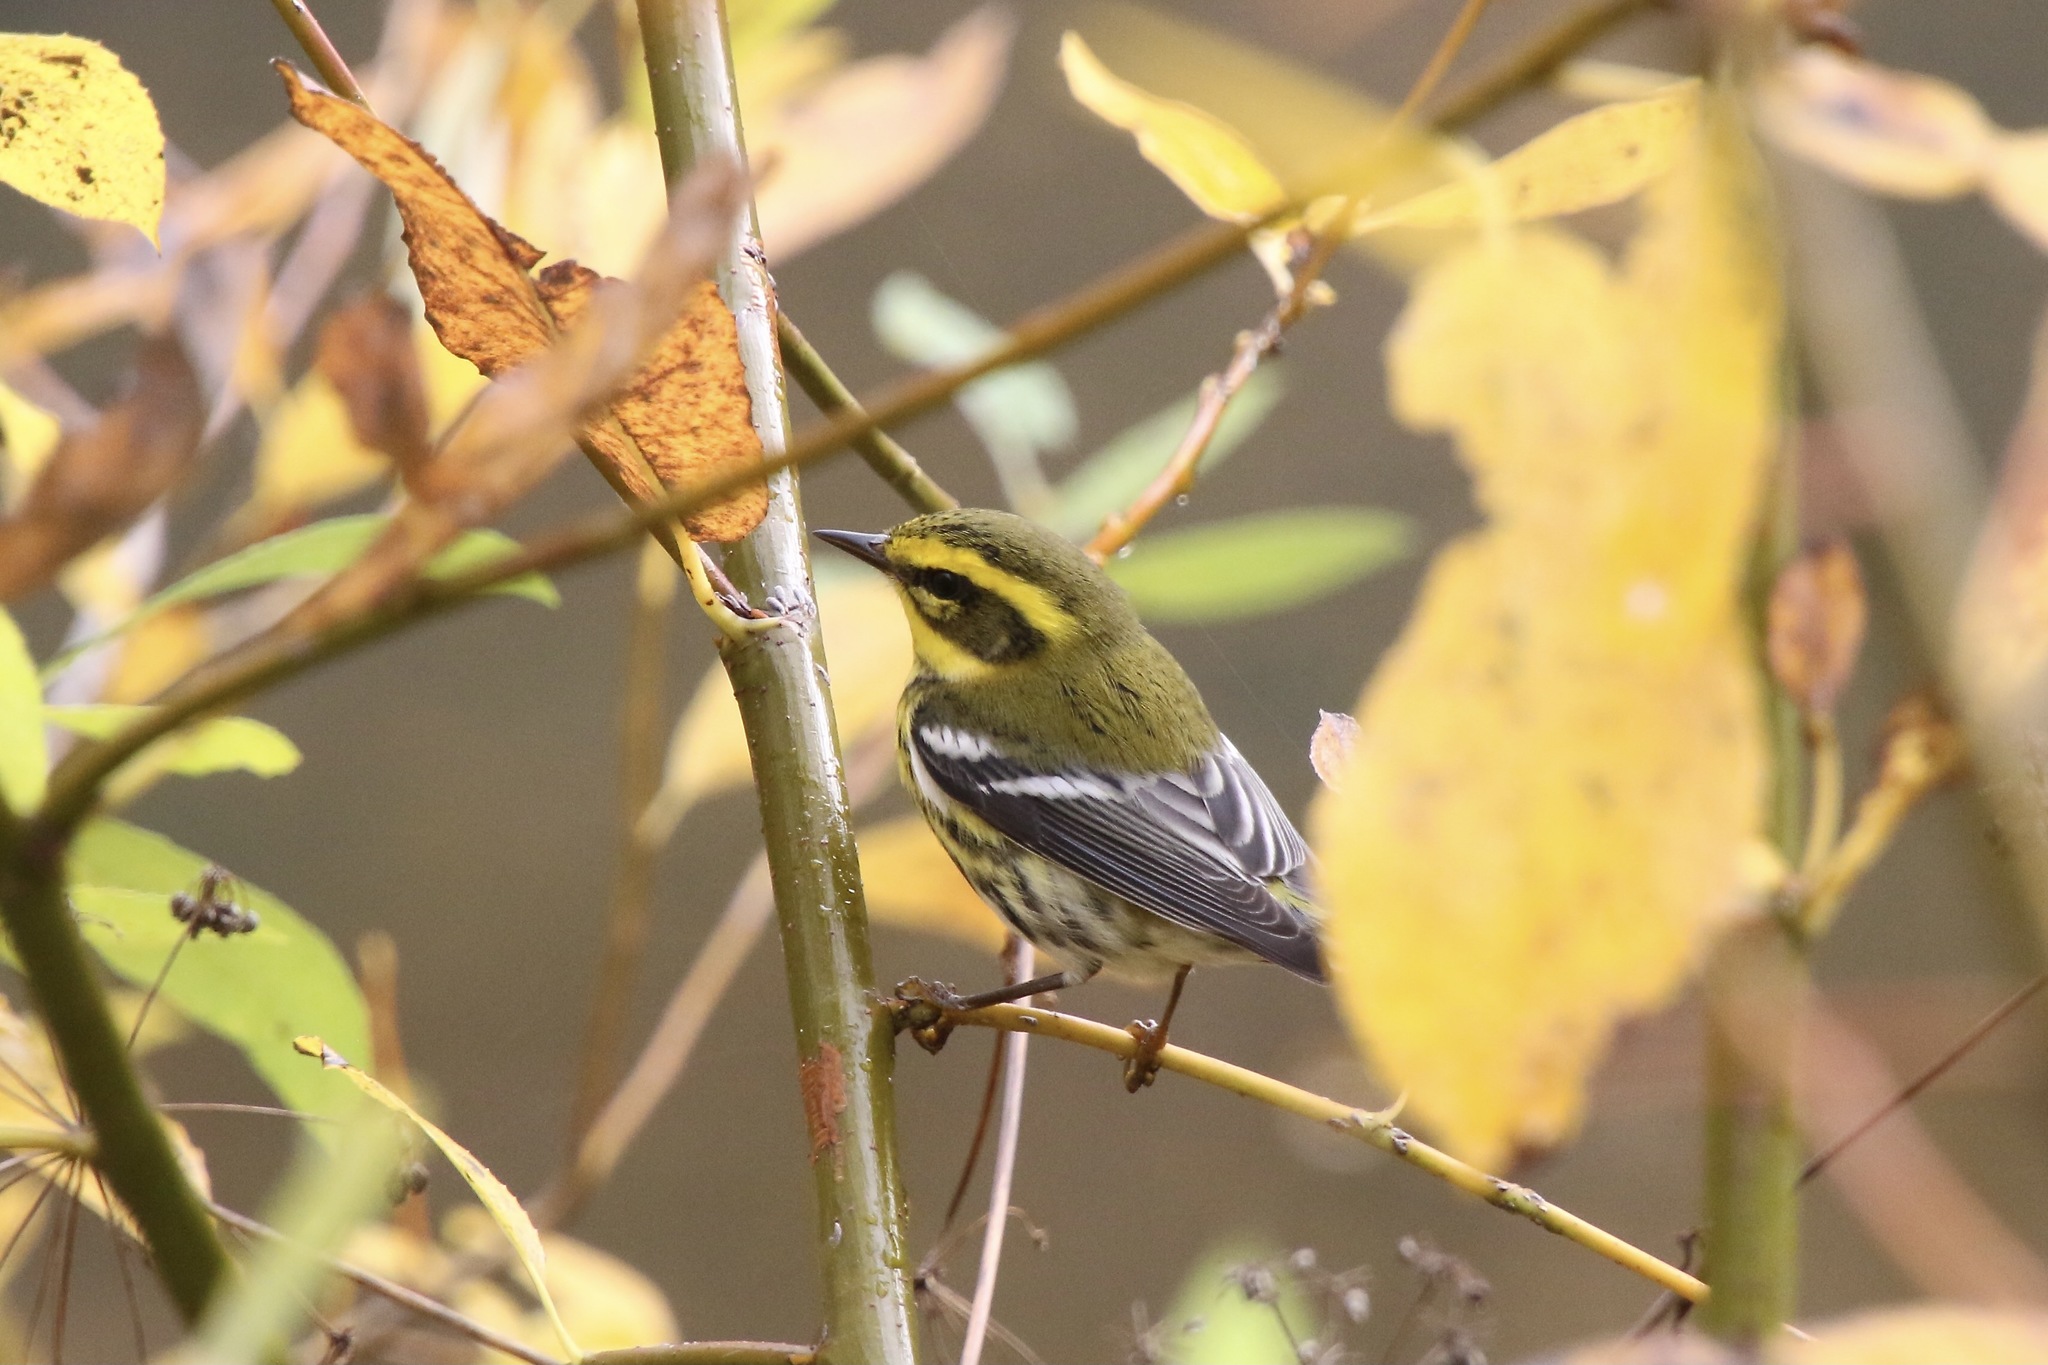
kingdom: Animalia
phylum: Chordata
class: Aves
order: Passeriformes
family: Parulidae
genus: Setophaga
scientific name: Setophaga townsendi
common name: Townsend's warbler
